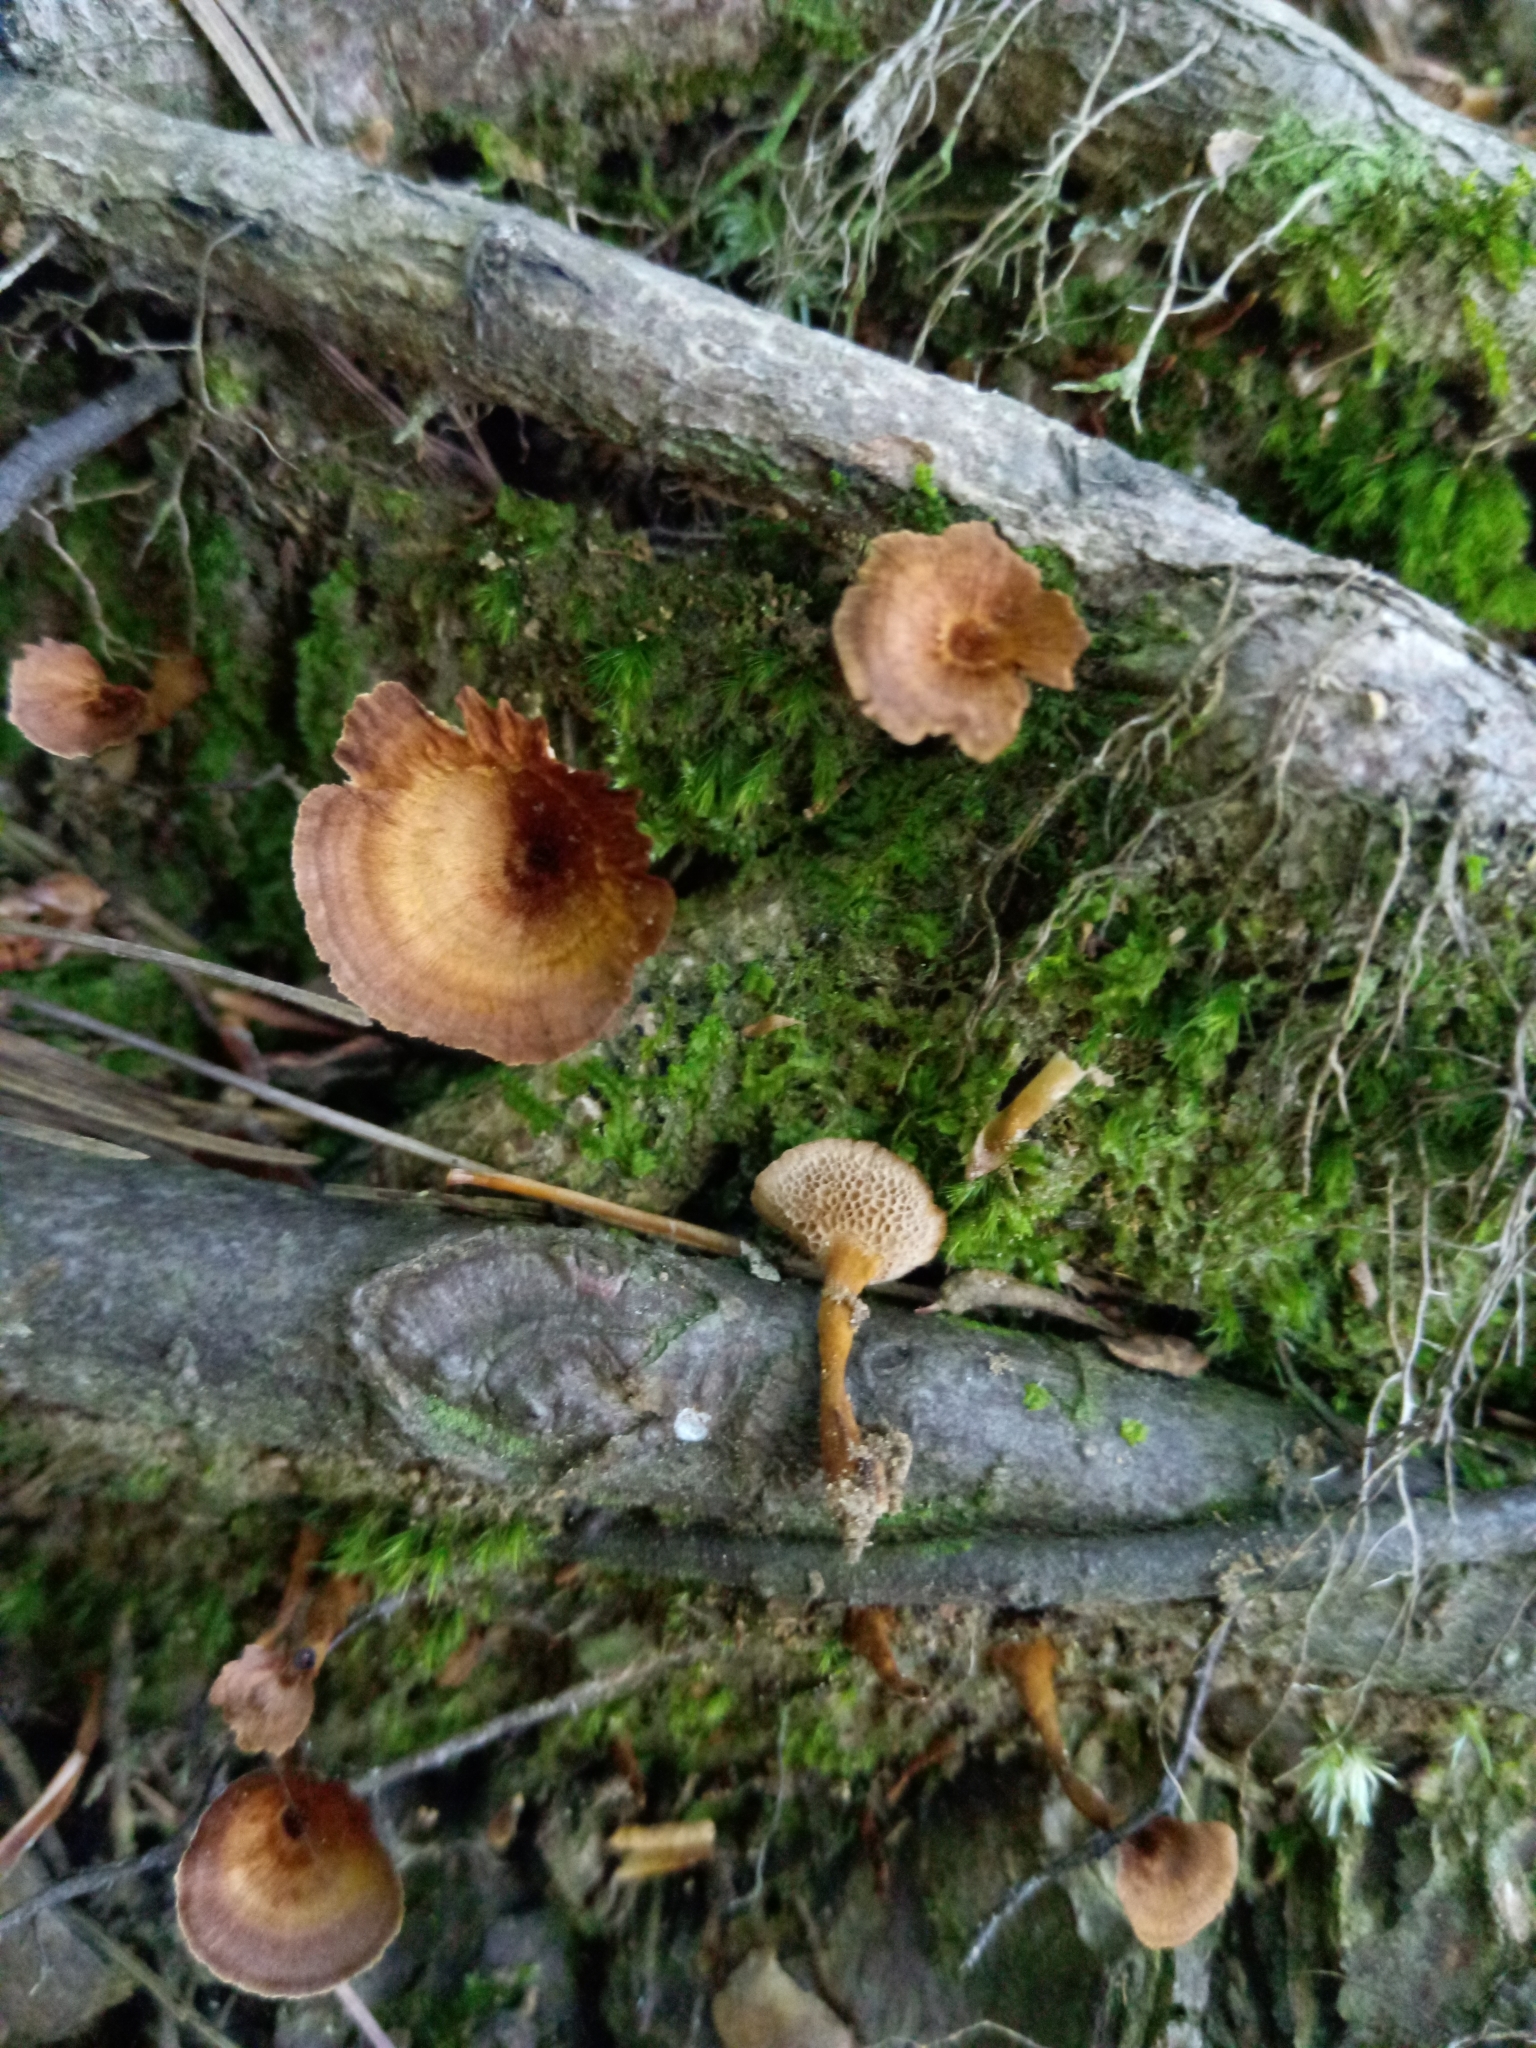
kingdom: Fungi
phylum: Basidiomycota
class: Agaricomycetes
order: Hymenochaetales
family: Hymenochaetaceae
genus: Coltricia
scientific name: Coltricia cinnamomea
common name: Shiny cinnamon polypore
